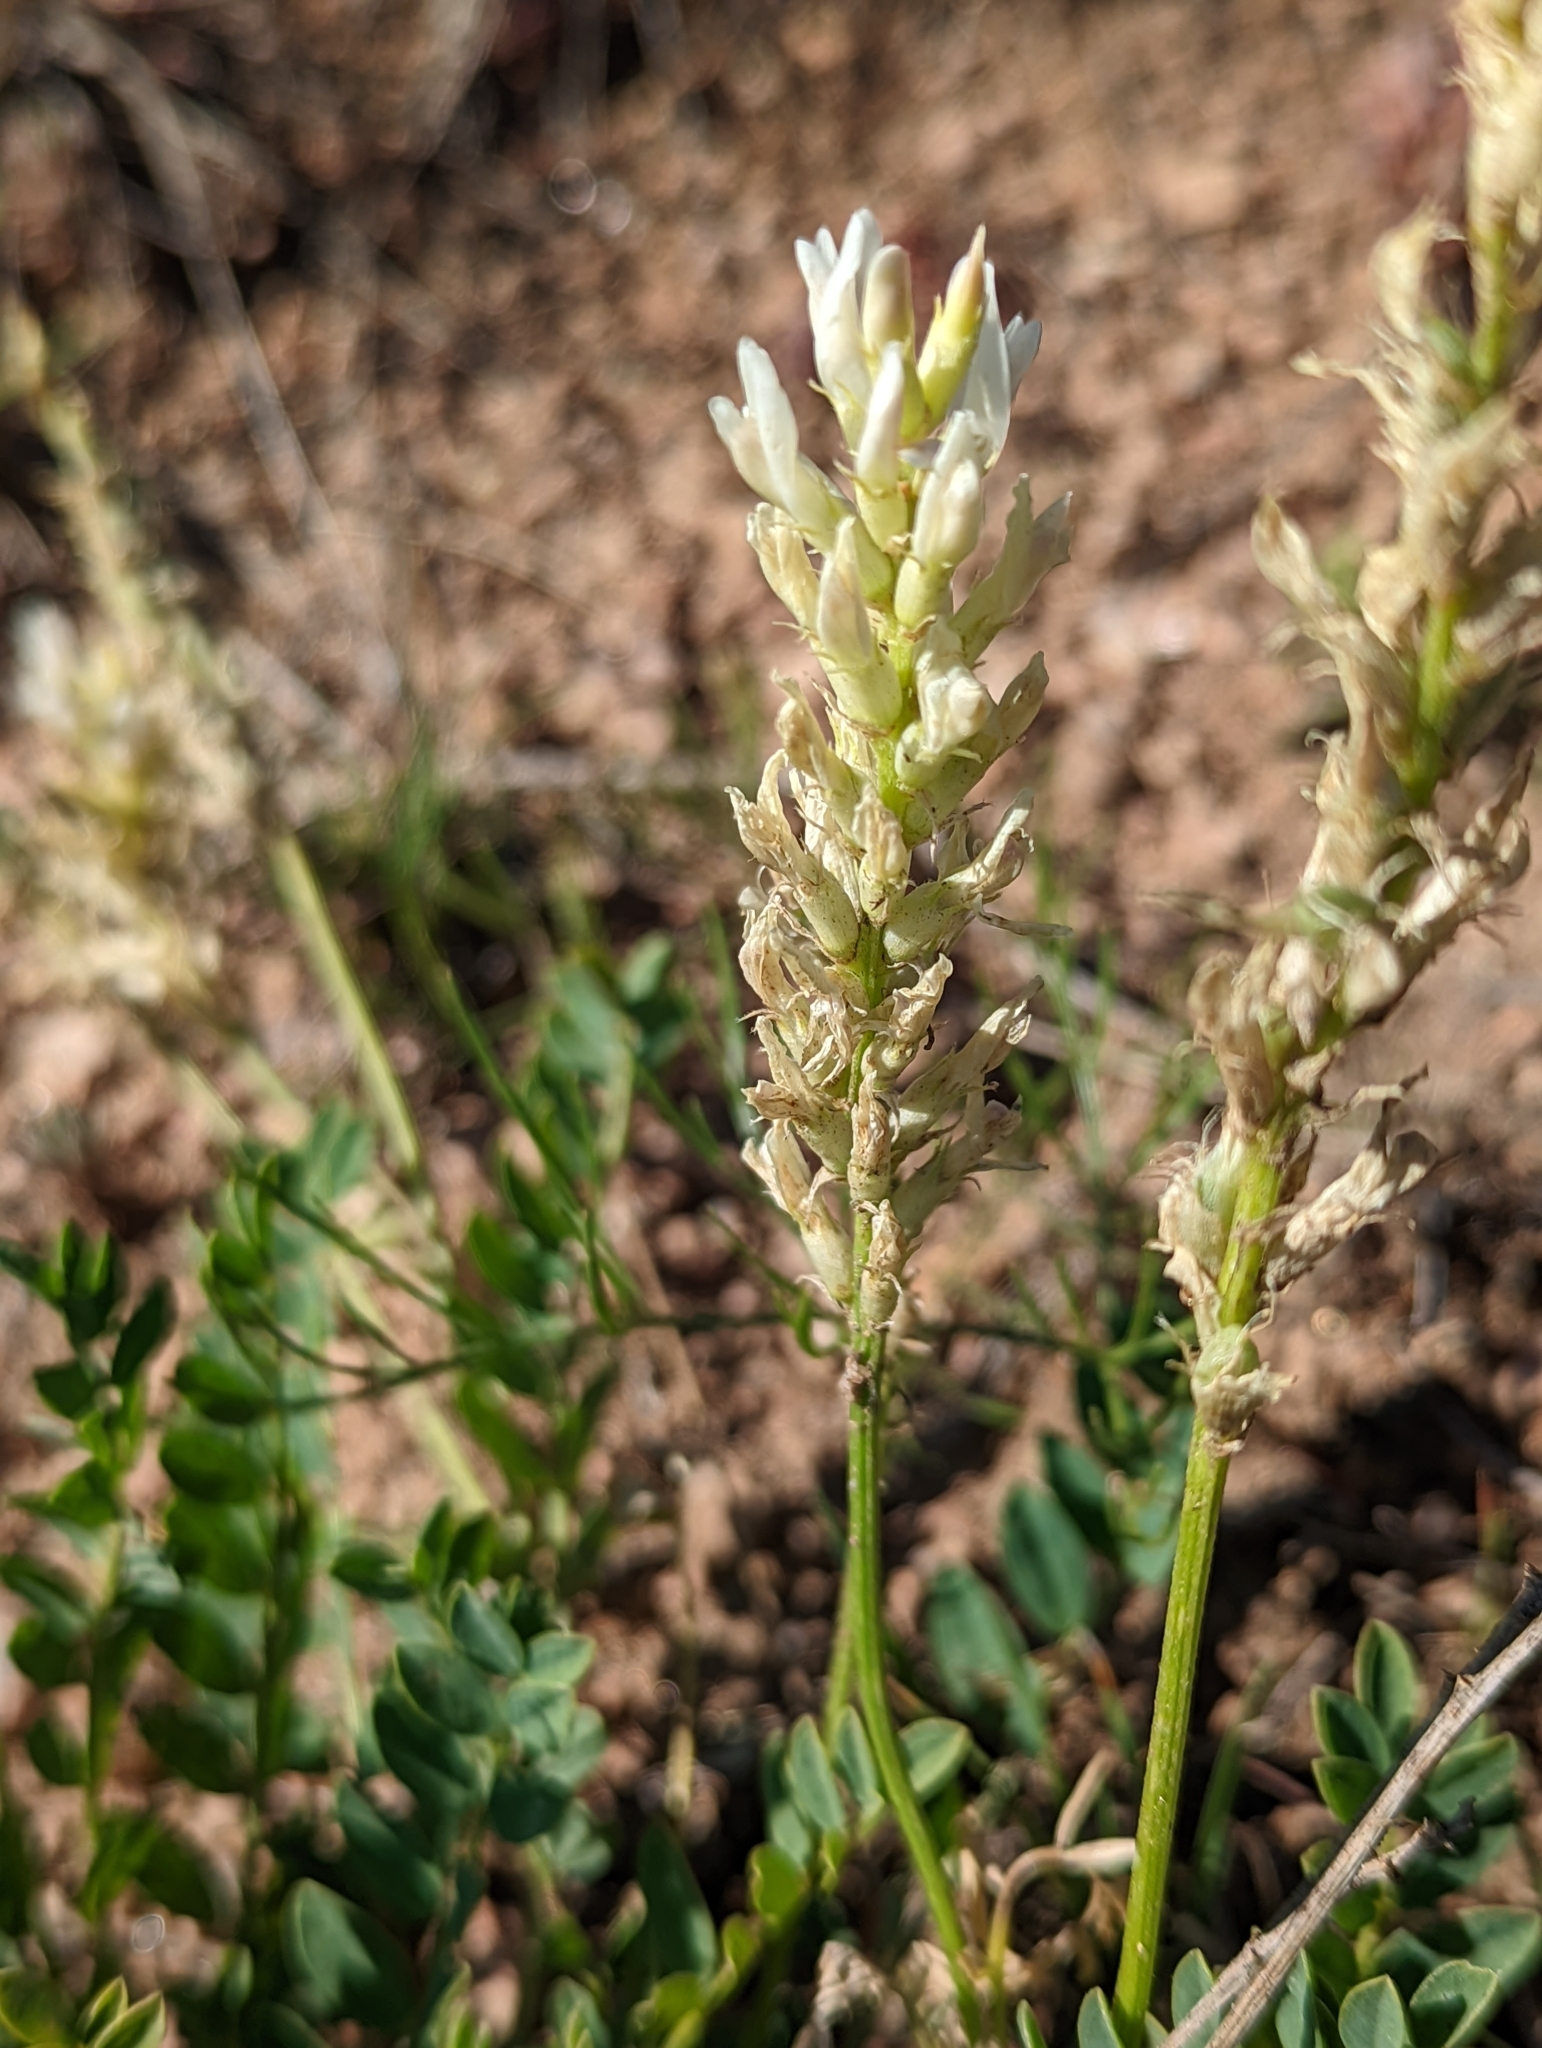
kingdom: Plantae
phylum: Tracheophyta
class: Magnoliopsida
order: Fabales
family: Fabaceae
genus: Astragalus
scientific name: Astragalus laxmannii
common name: Laxmann's milk-vetch
